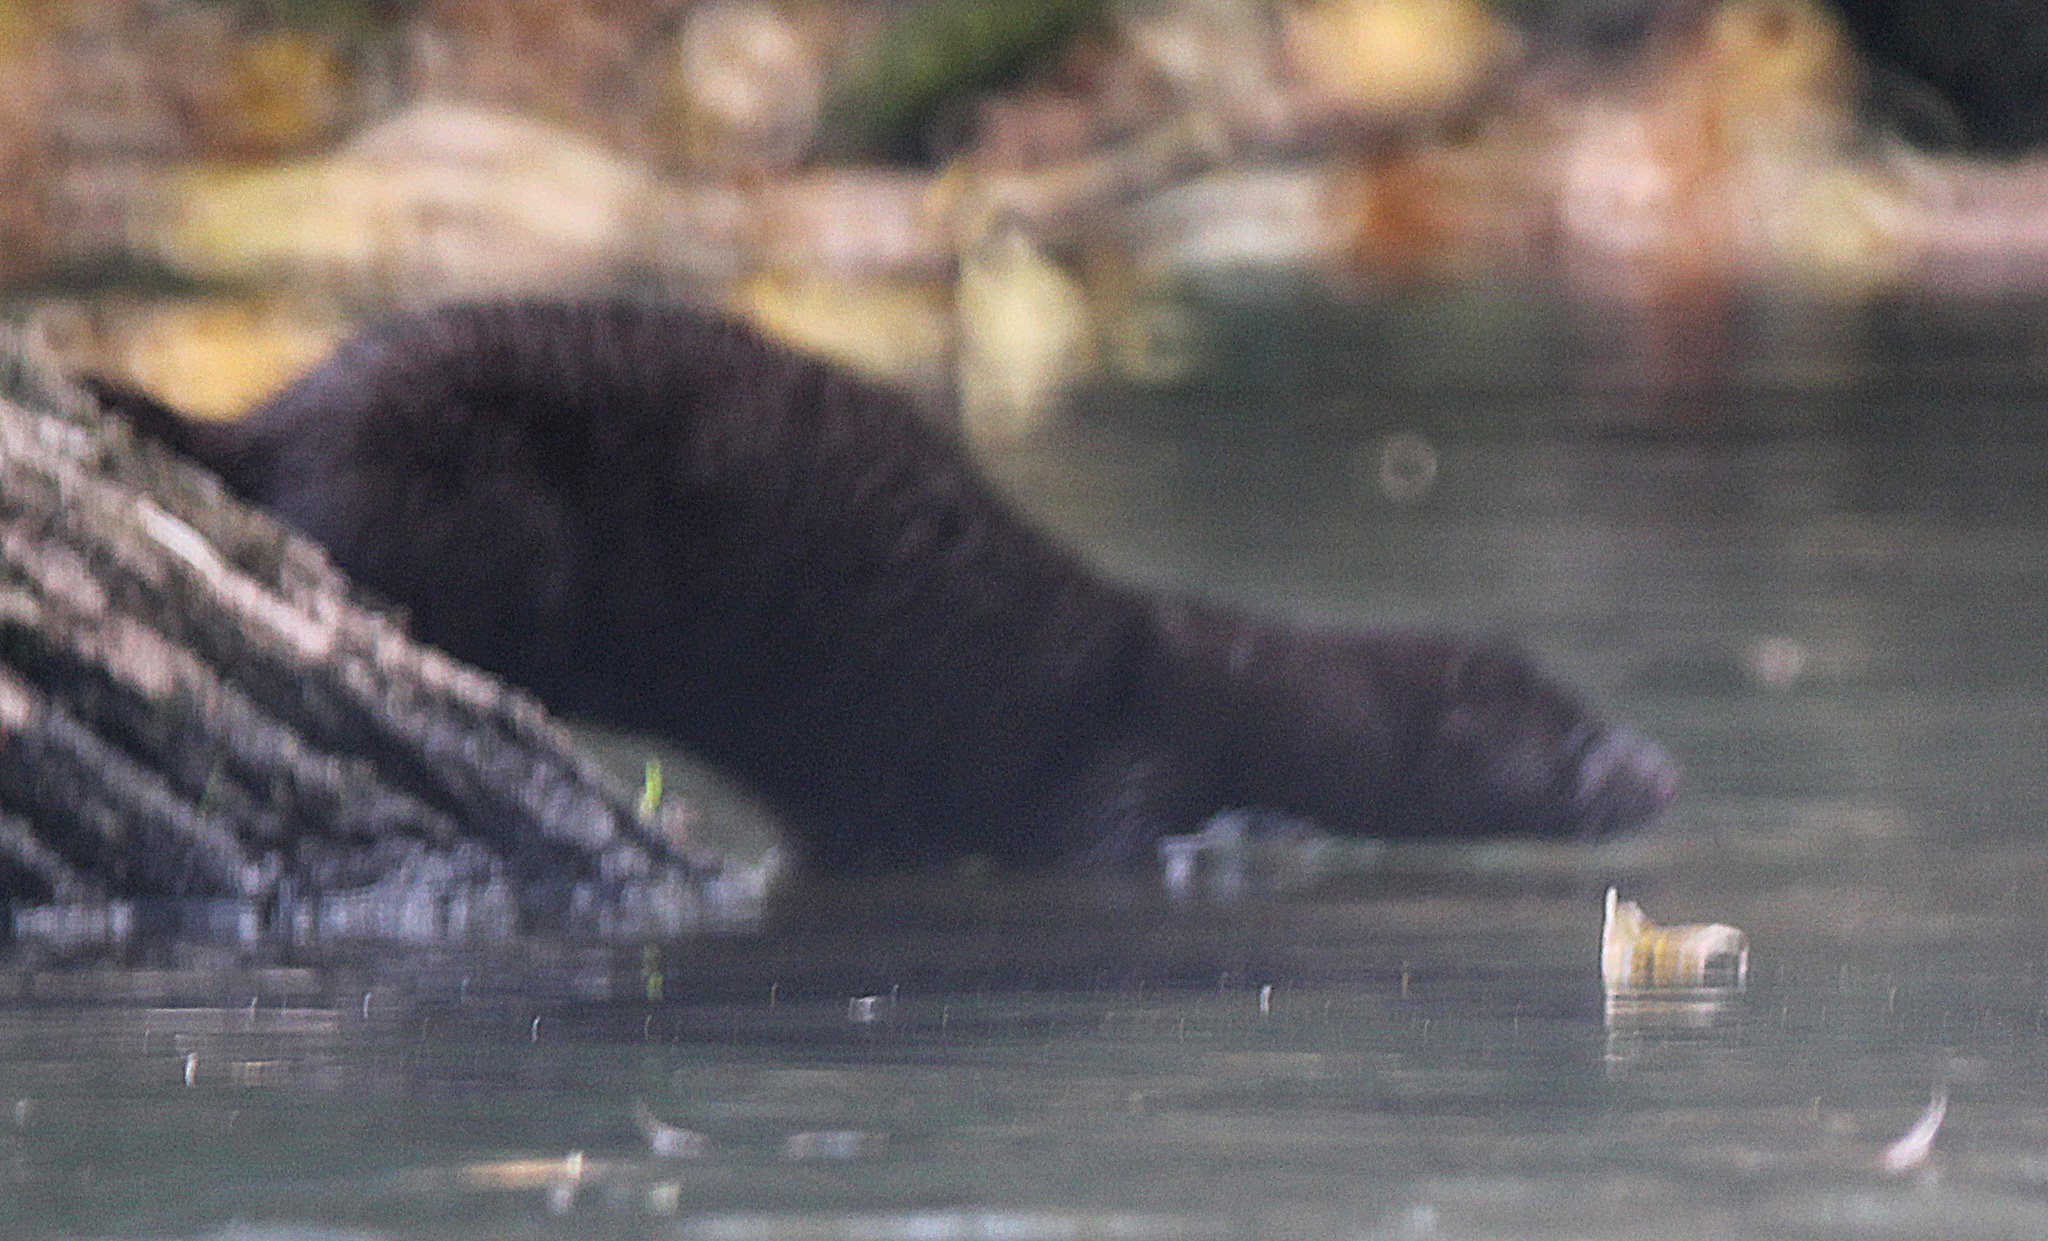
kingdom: Animalia
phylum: Chordata
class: Mammalia
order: Carnivora
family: Mustelidae
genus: Mustela
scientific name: Mustela
